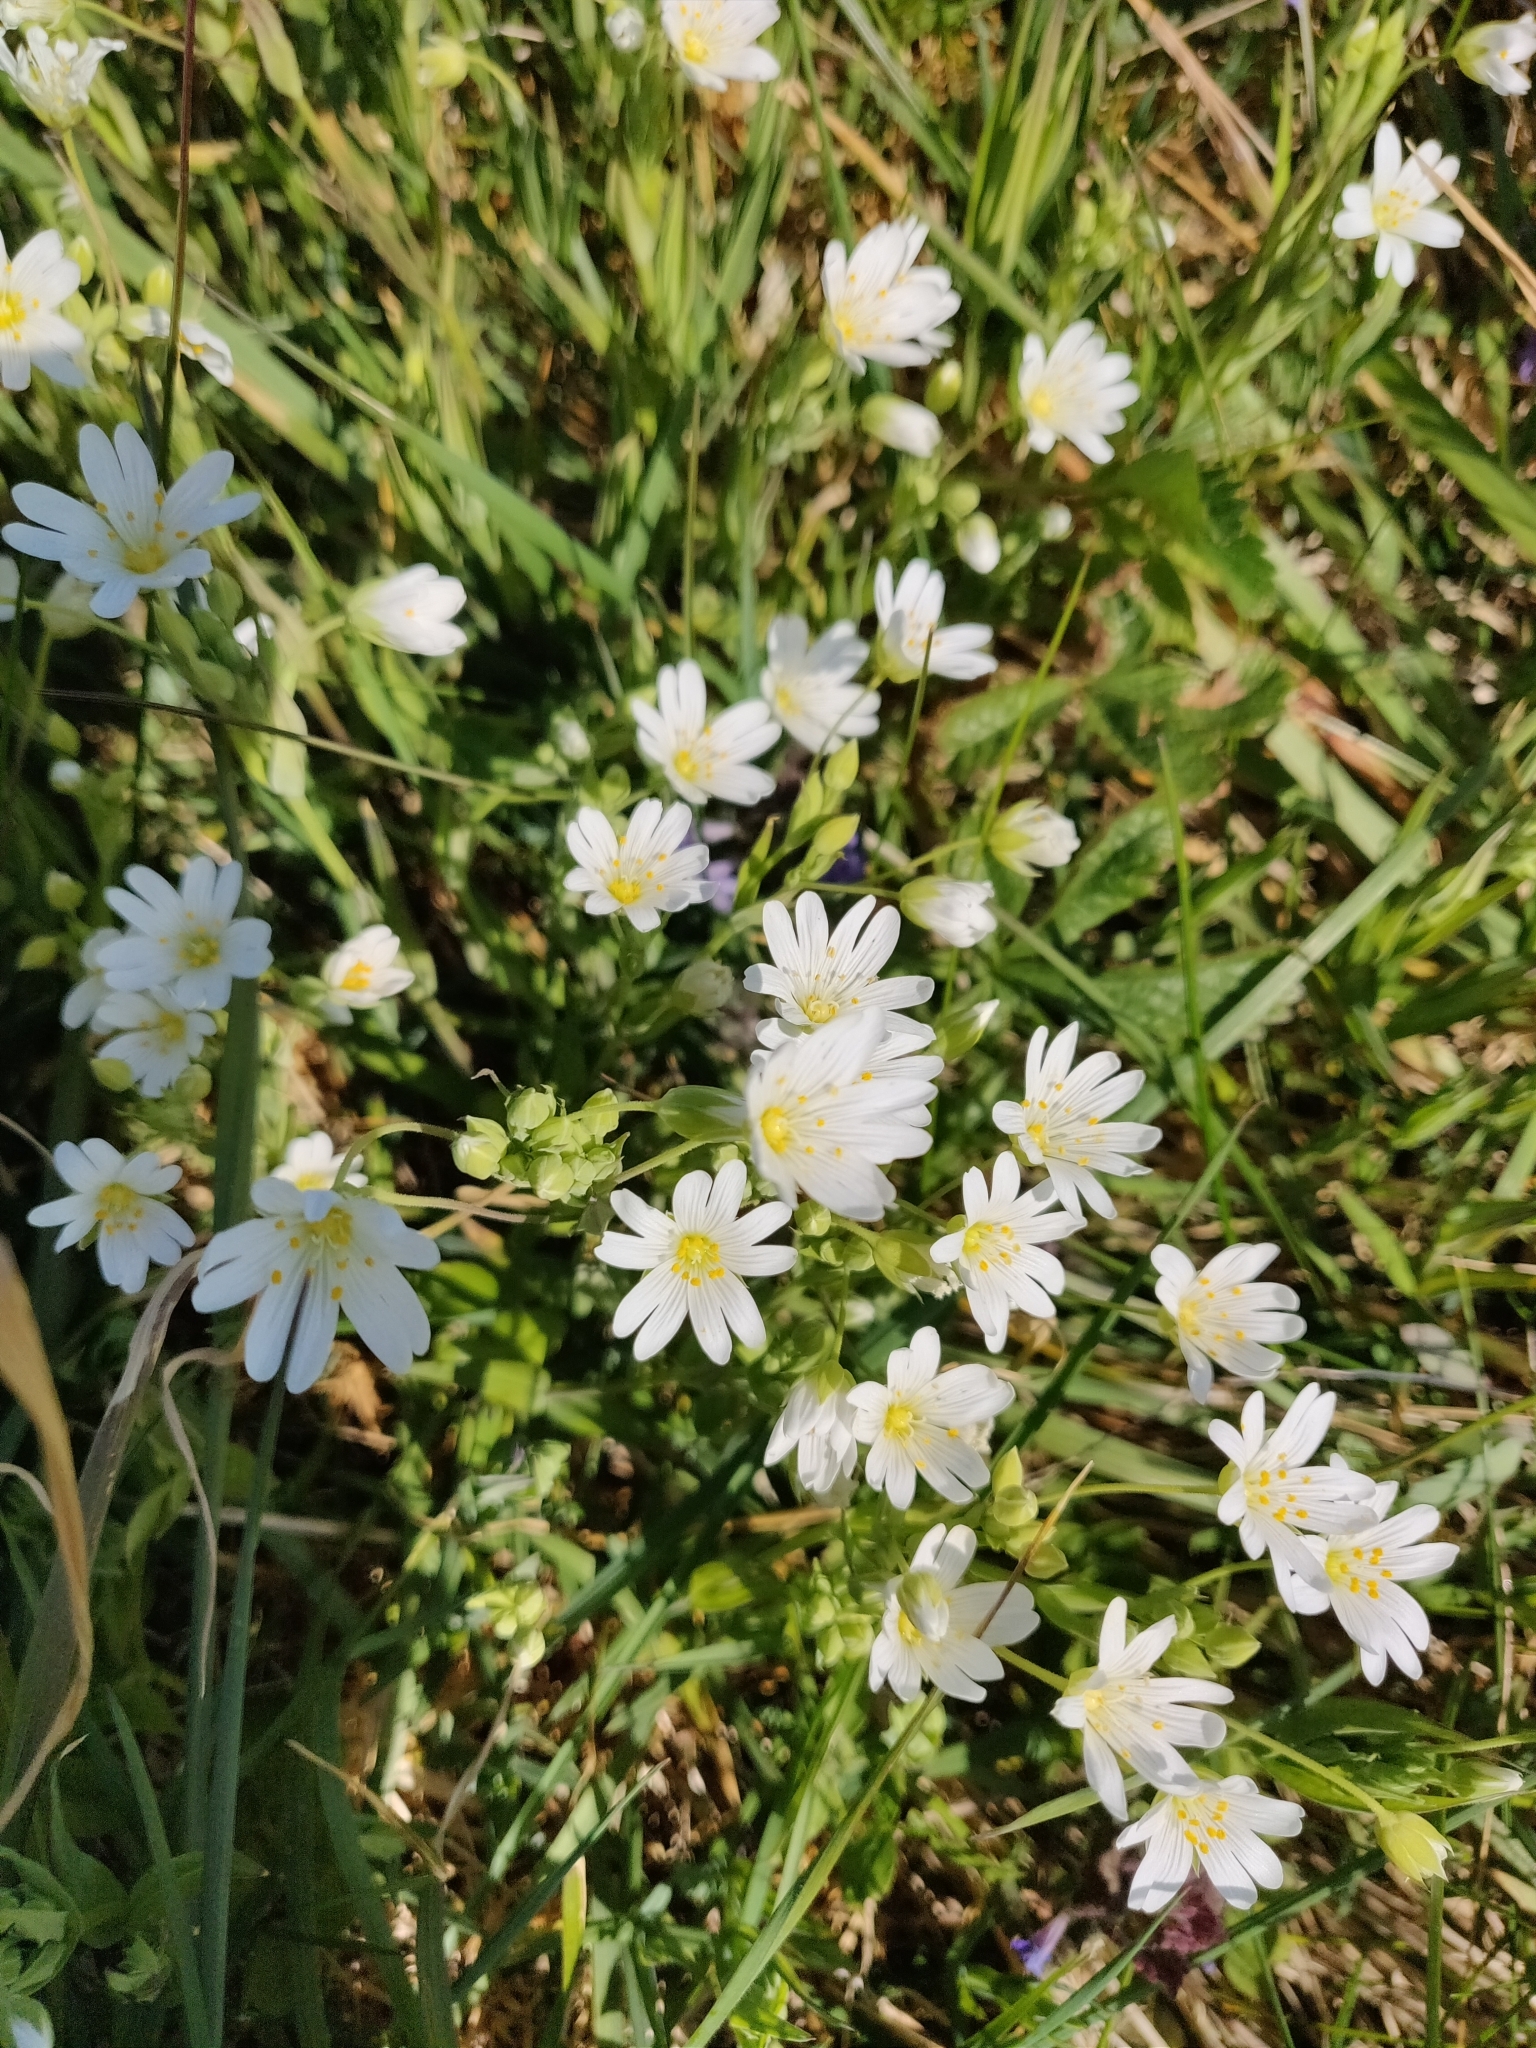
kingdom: Plantae
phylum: Tracheophyta
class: Magnoliopsida
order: Caryophyllales
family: Caryophyllaceae
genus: Rabelera
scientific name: Rabelera holostea
